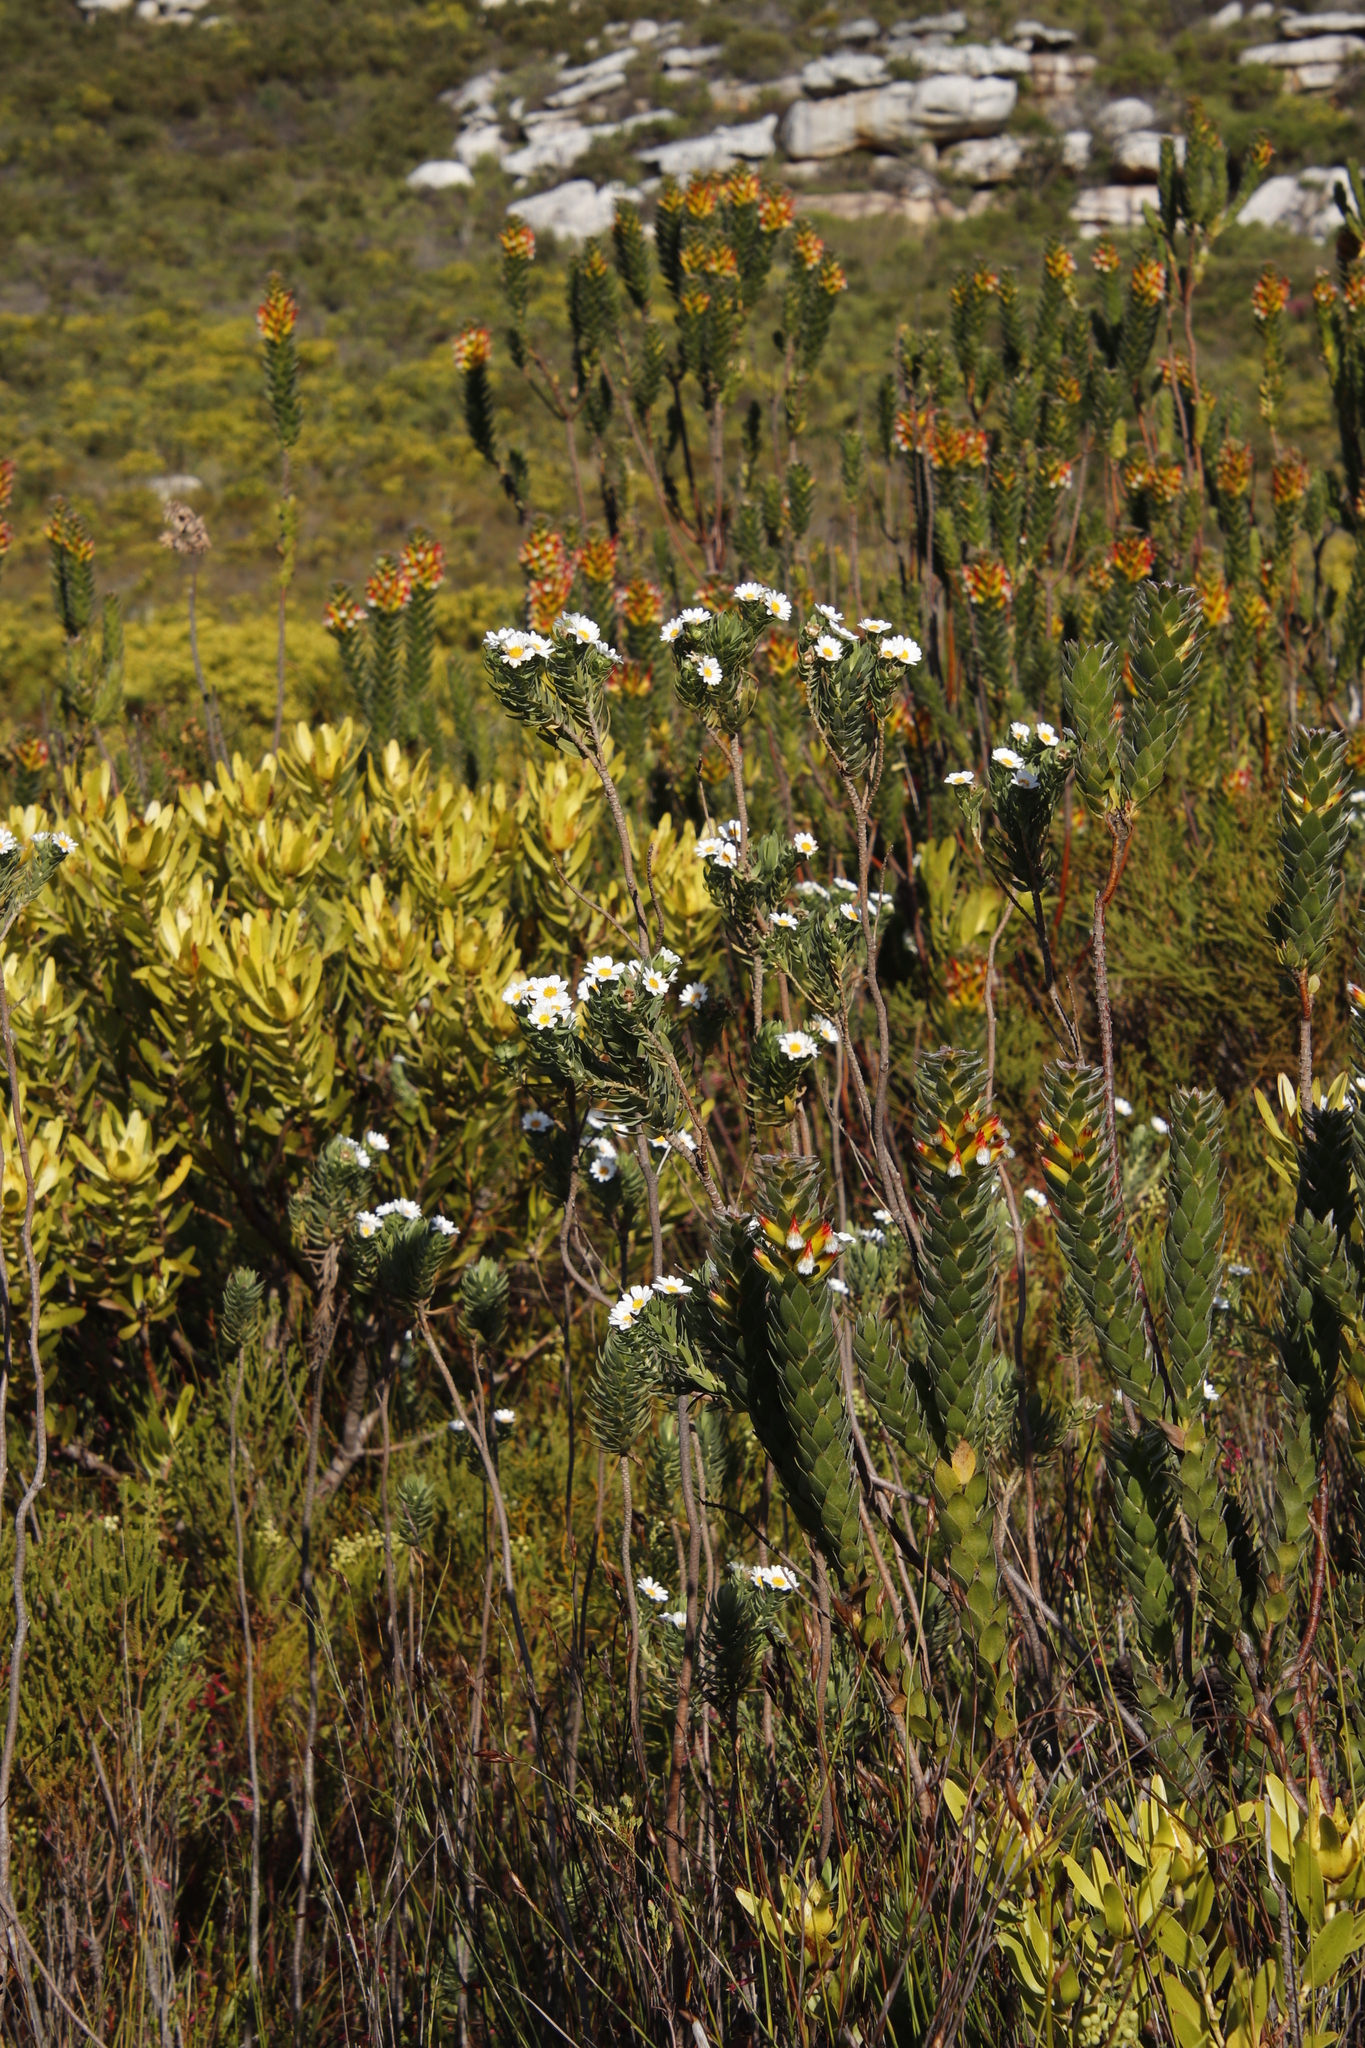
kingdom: Plantae
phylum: Tracheophyta
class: Magnoliopsida
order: Asterales
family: Asteraceae
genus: Osmitopsis
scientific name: Osmitopsis asteriscoides
